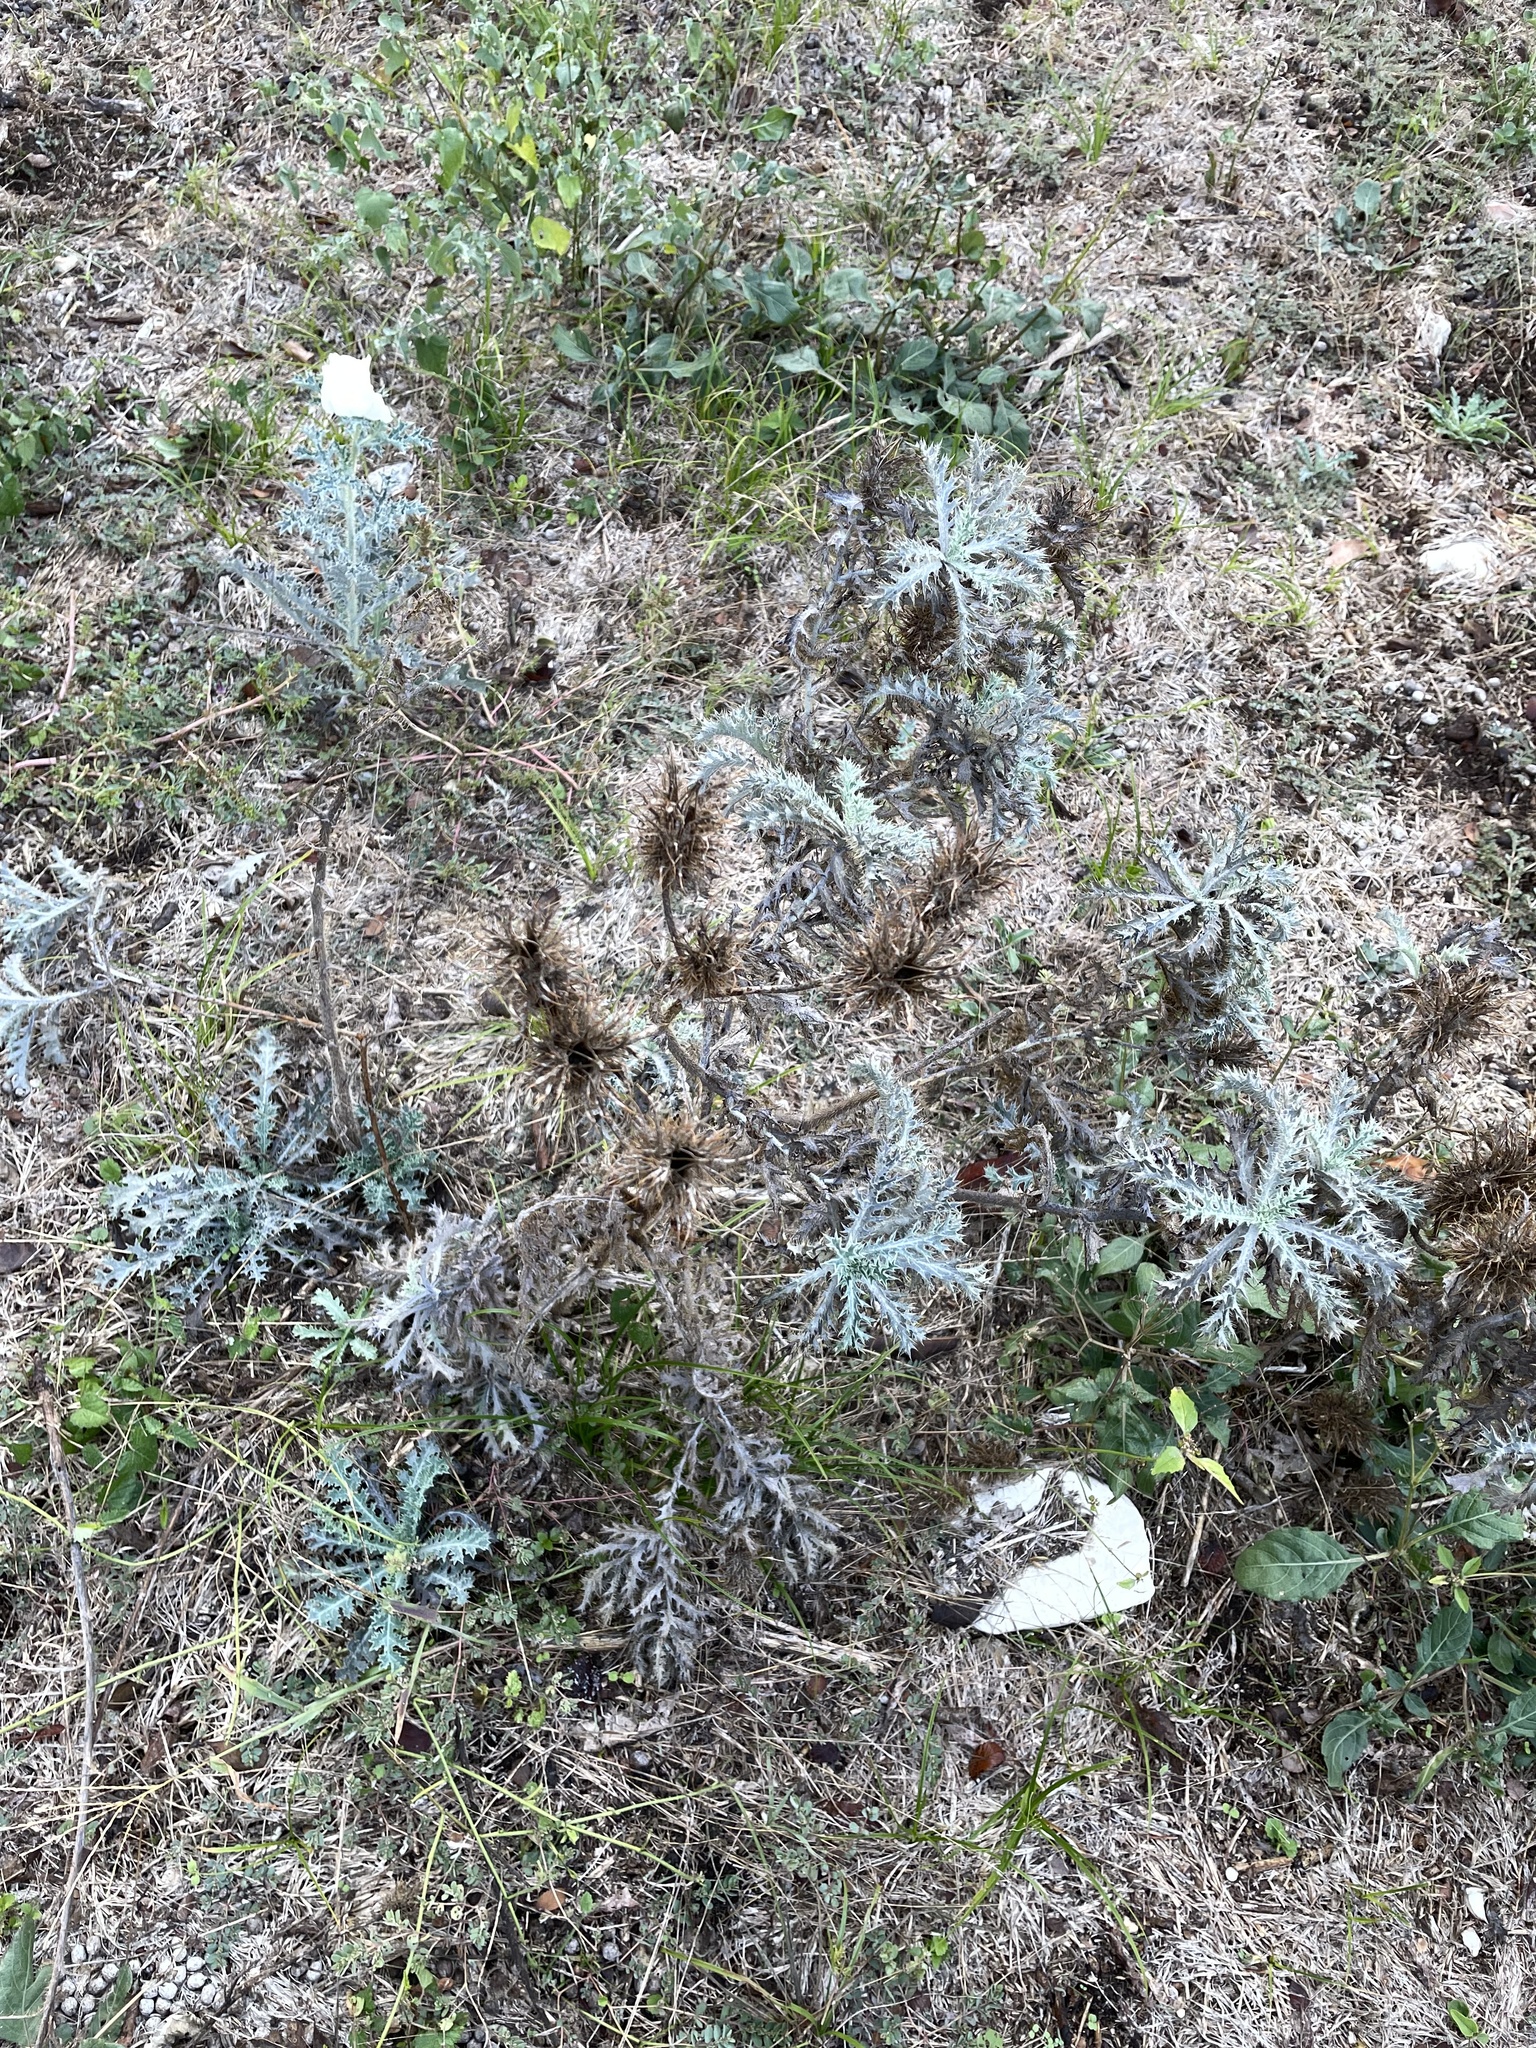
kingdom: Plantae
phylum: Tracheophyta
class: Magnoliopsida
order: Ranunculales
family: Papaveraceae
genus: Argemone
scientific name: Argemone aurantiaca
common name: Texas prickly-poppy
